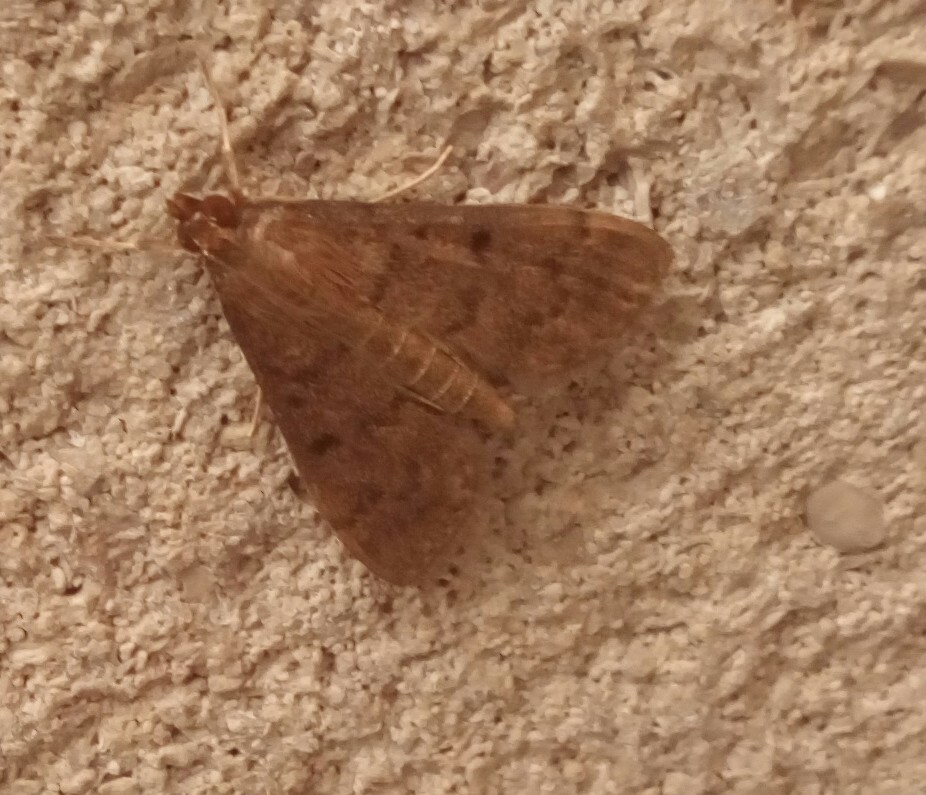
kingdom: Animalia
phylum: Arthropoda
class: Insecta
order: Lepidoptera
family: Crambidae
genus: Herpetogramma
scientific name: Herpetogramma phaeopteralis
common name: Dusky herpetogramma moth
